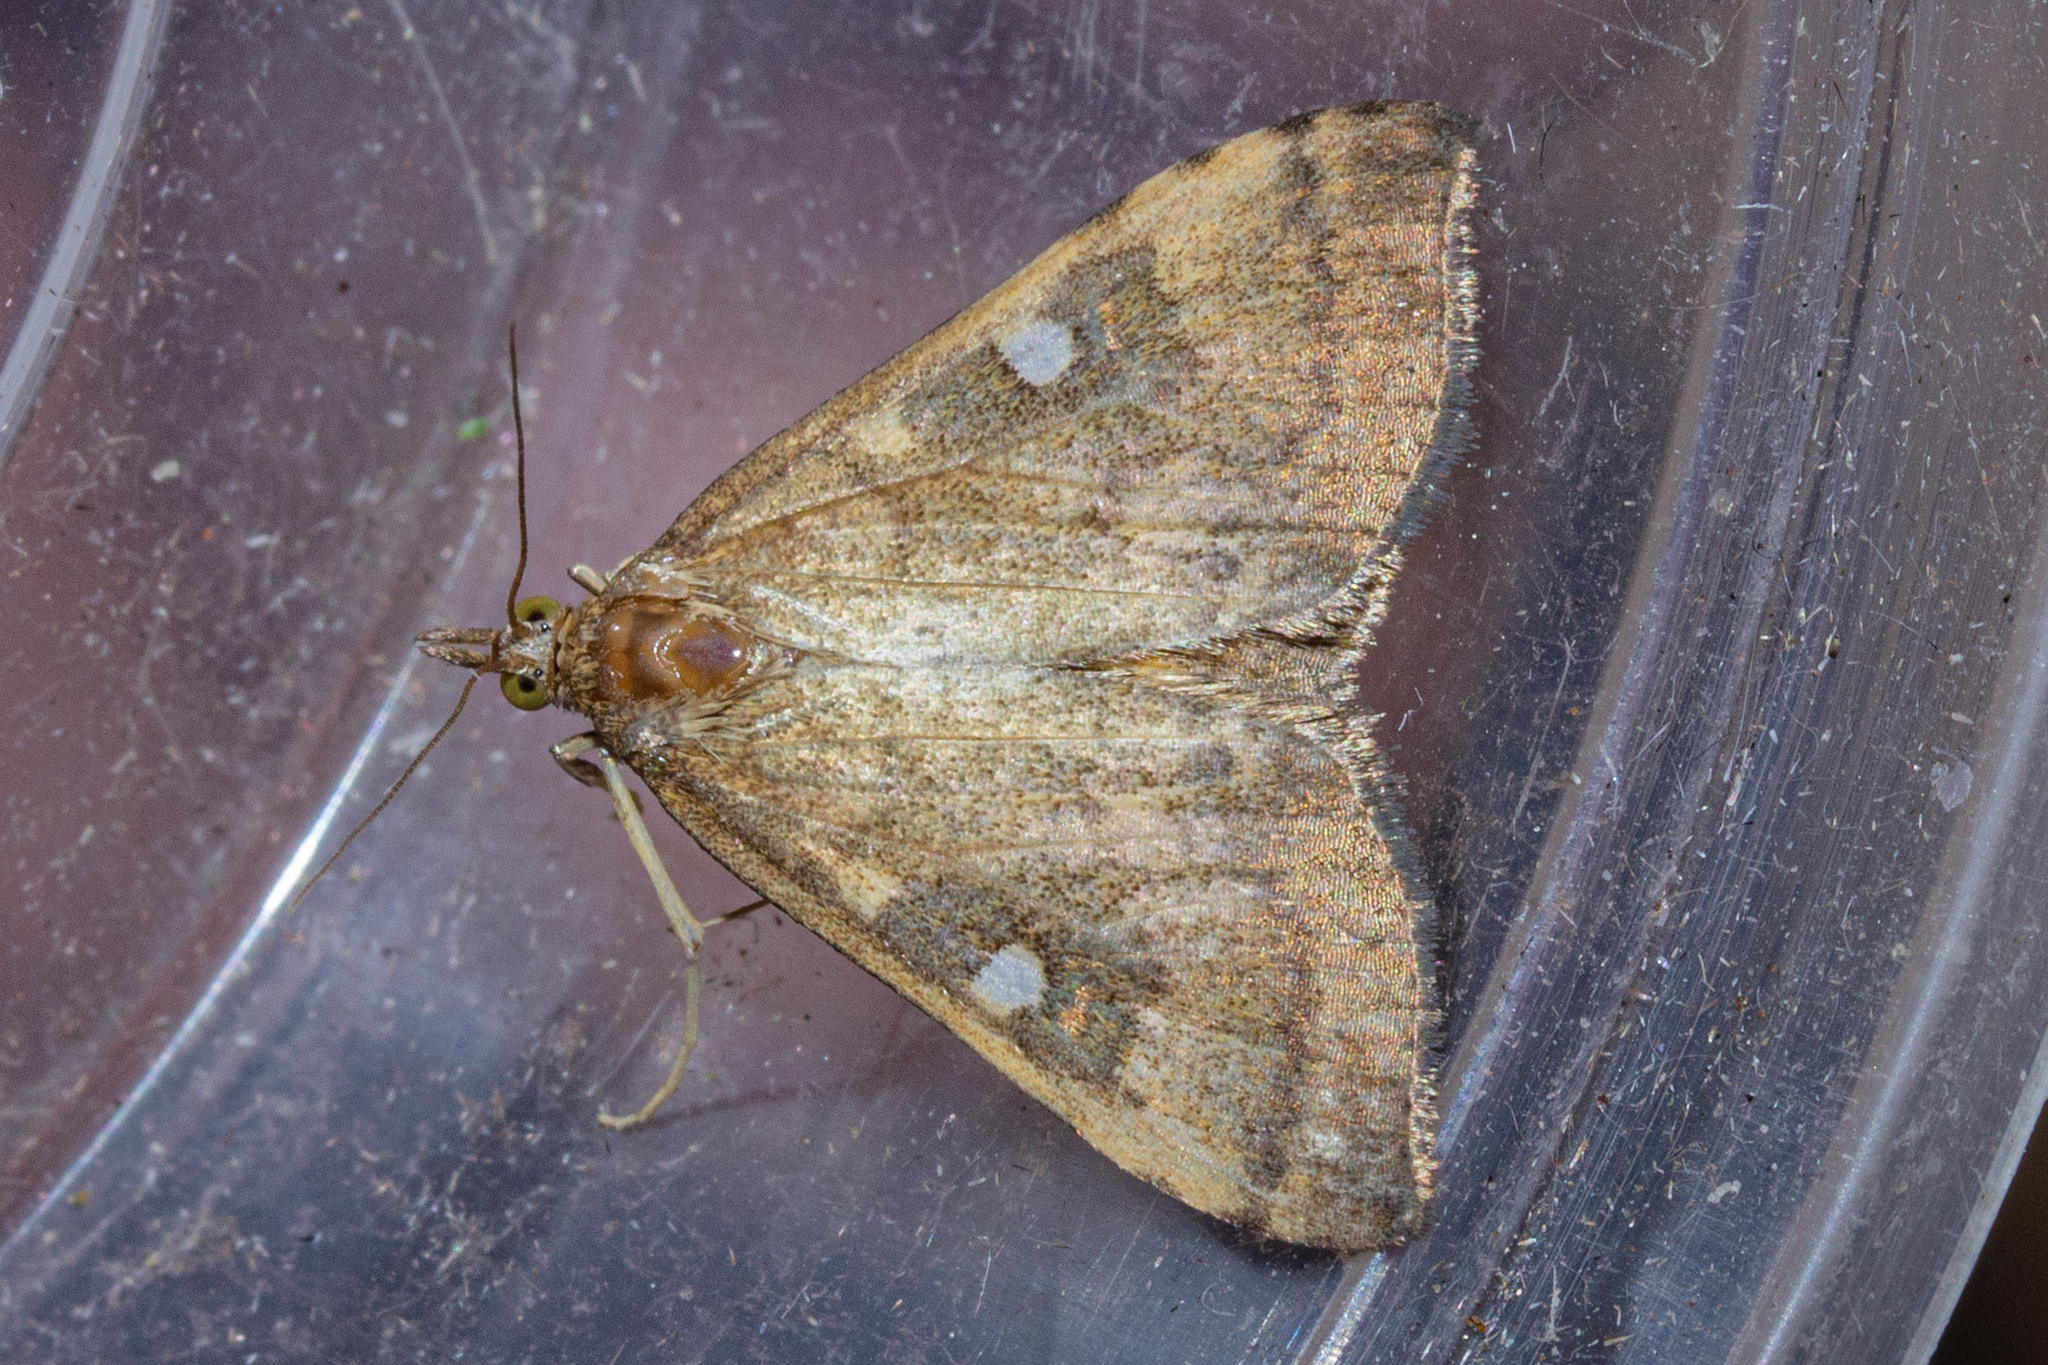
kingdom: Animalia
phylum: Arthropoda
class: Insecta
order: Lepidoptera
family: Crambidae
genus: Udea
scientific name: Udea Mnesictena marmarina
